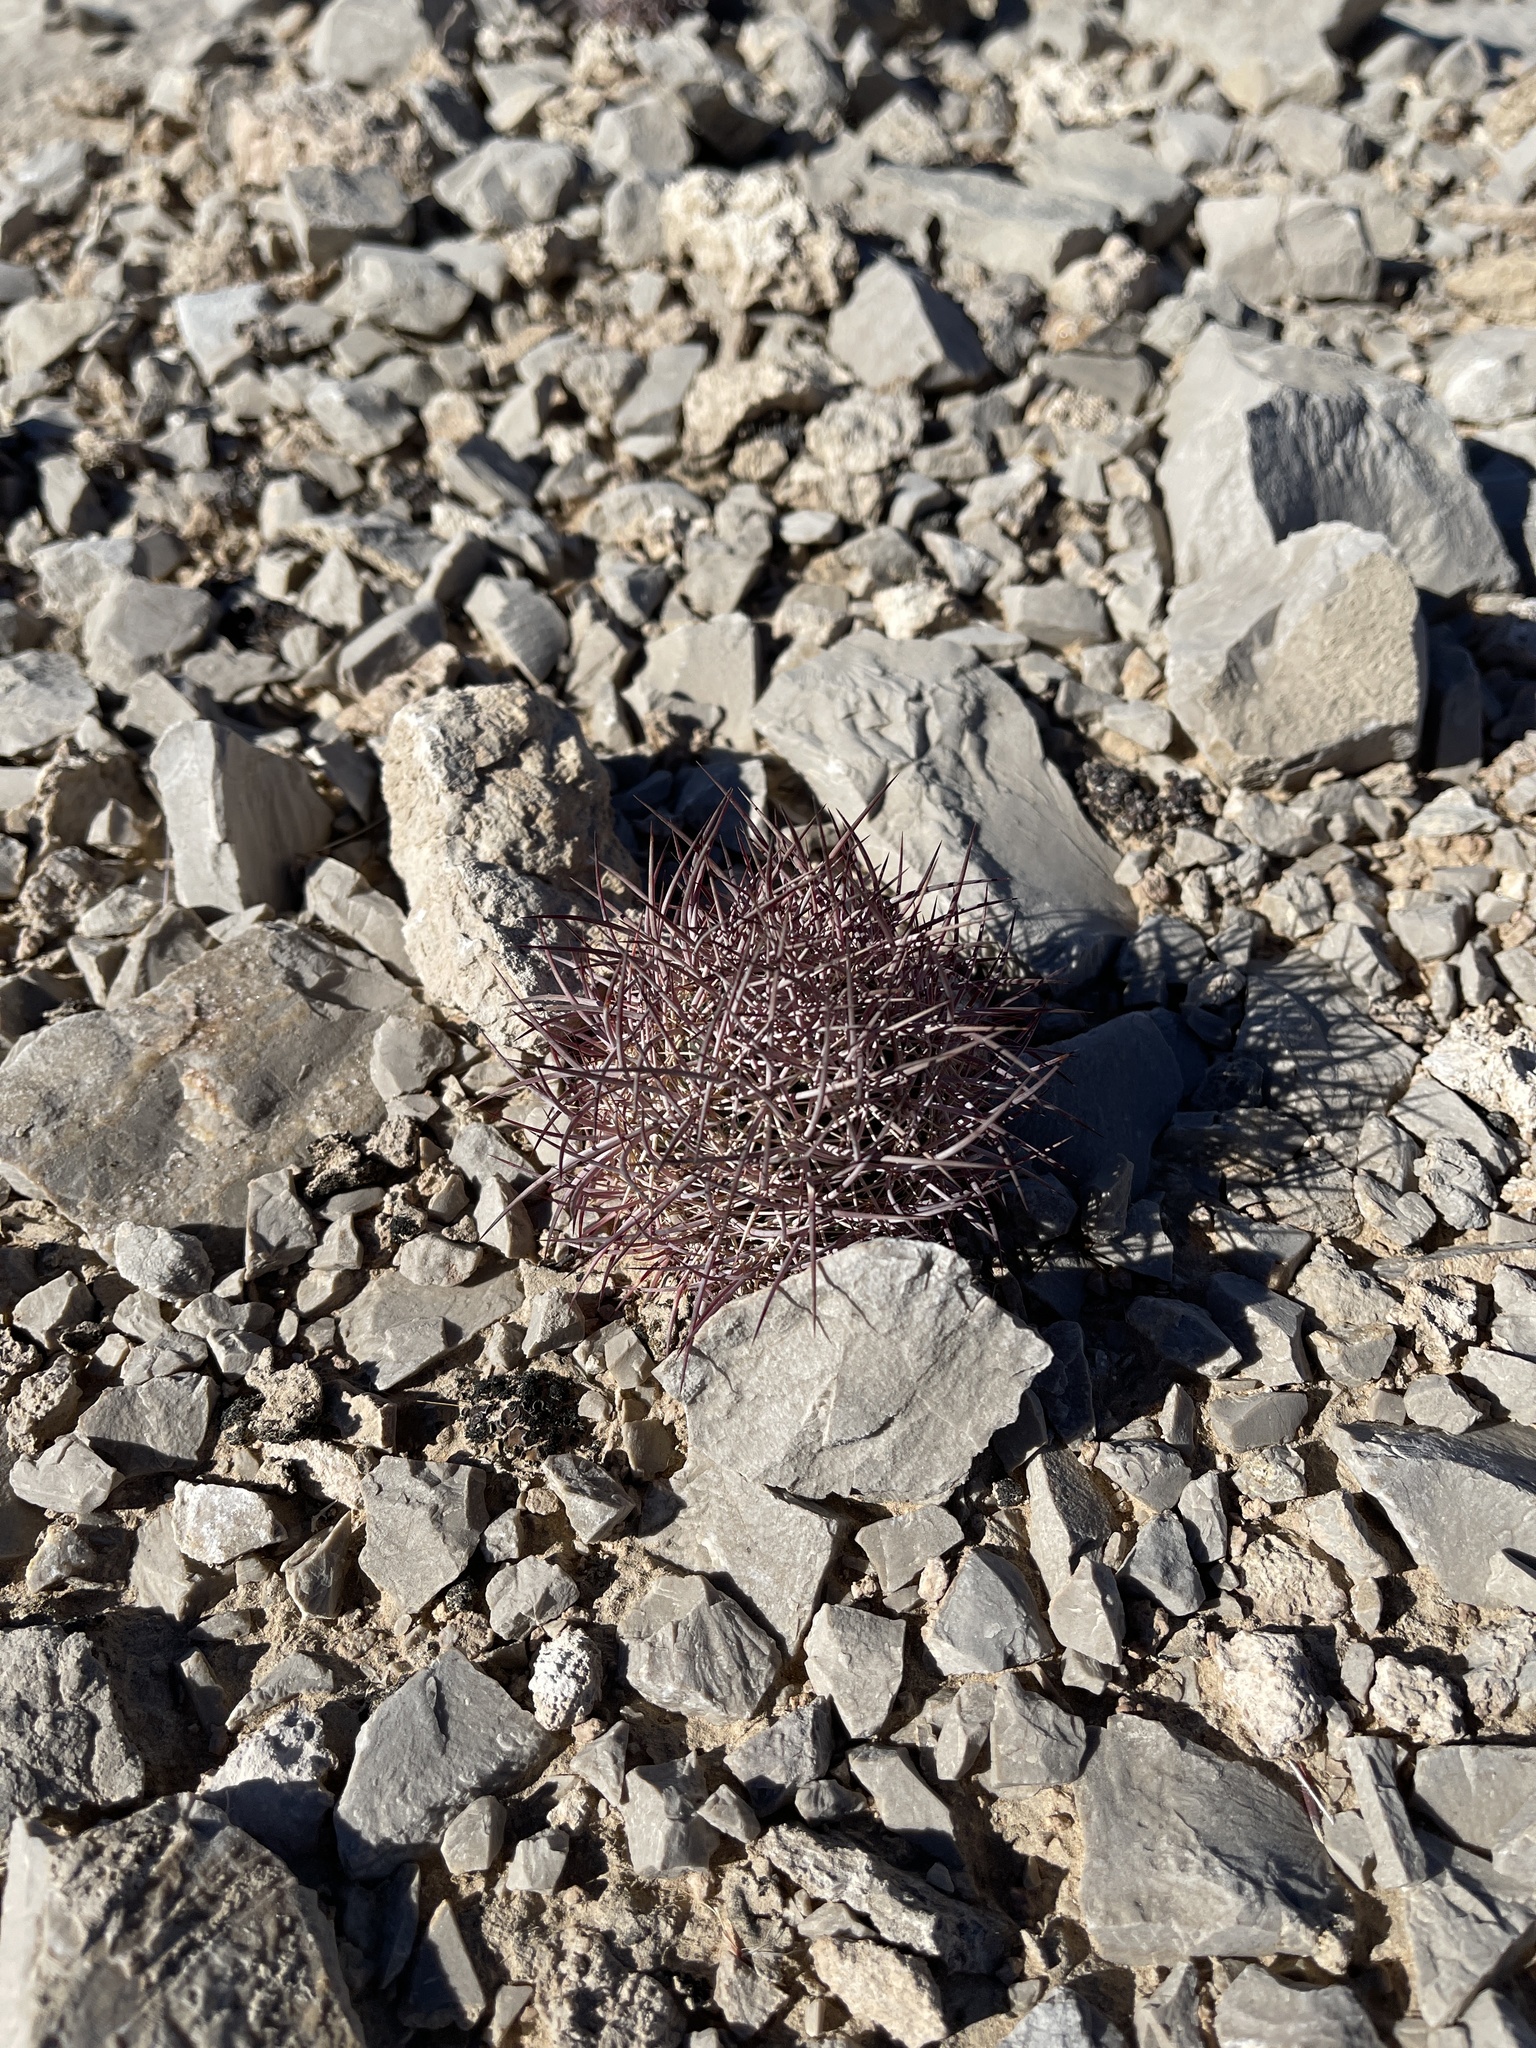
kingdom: Plantae
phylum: Tracheophyta
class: Magnoliopsida
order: Caryophyllales
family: Cactaceae
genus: Sclerocactus
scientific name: Sclerocactus johnsonii
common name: Eight-spine fishhook cactus
